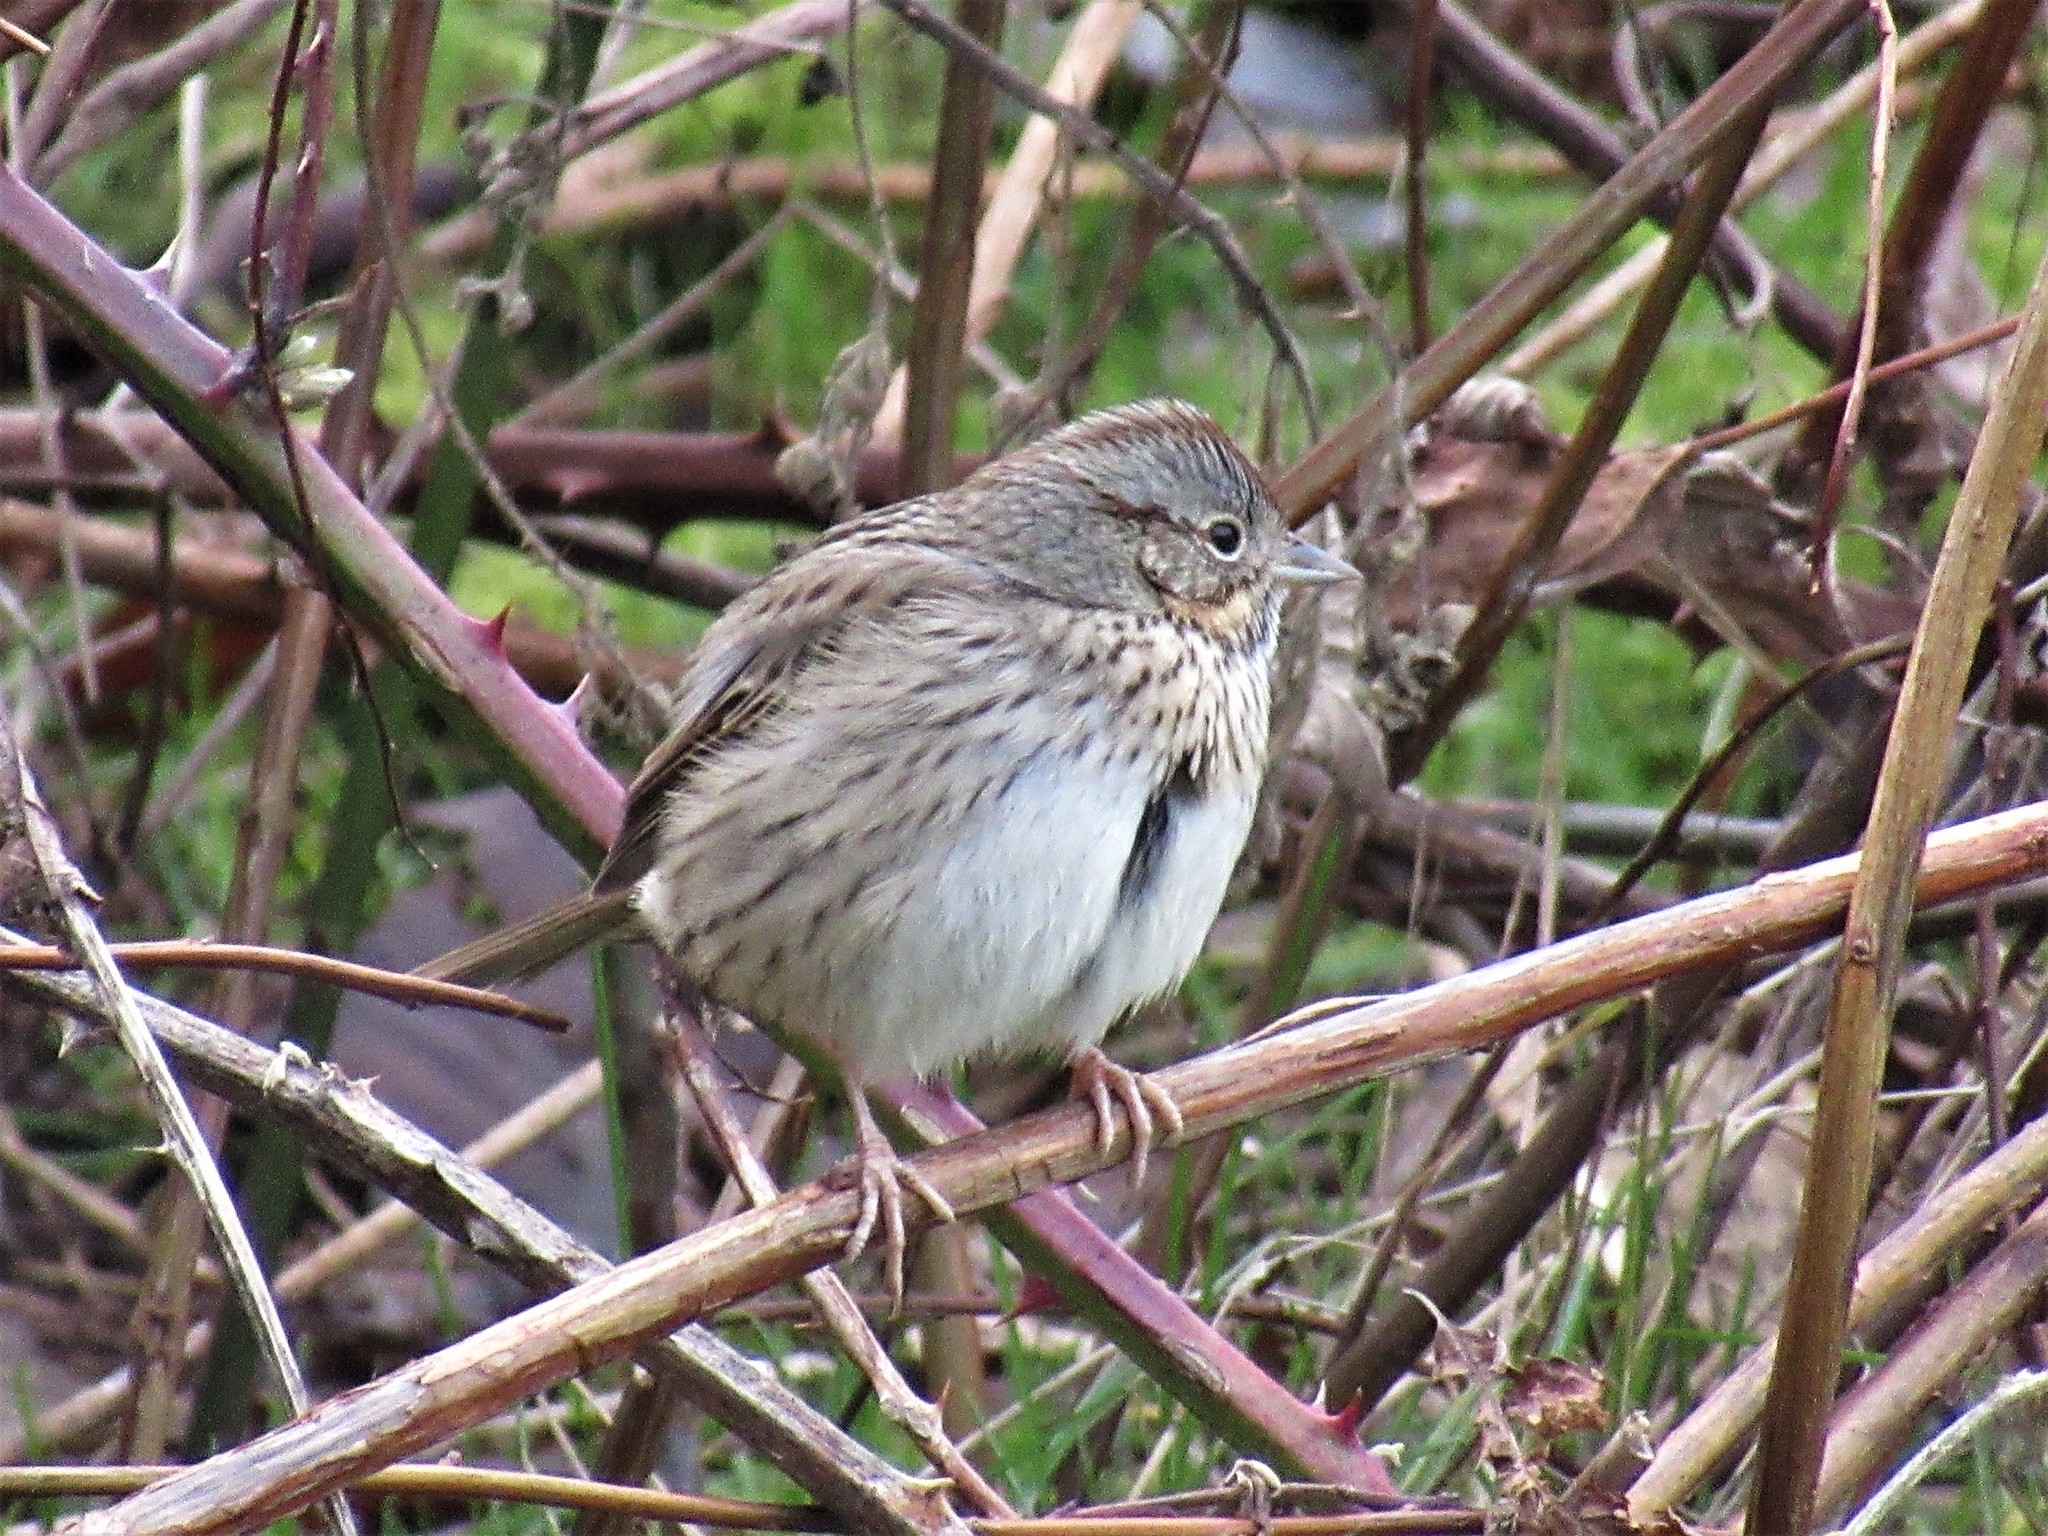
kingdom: Animalia
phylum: Chordata
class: Aves
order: Passeriformes
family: Passerellidae
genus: Melospiza
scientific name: Melospiza lincolnii
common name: Lincoln's sparrow
